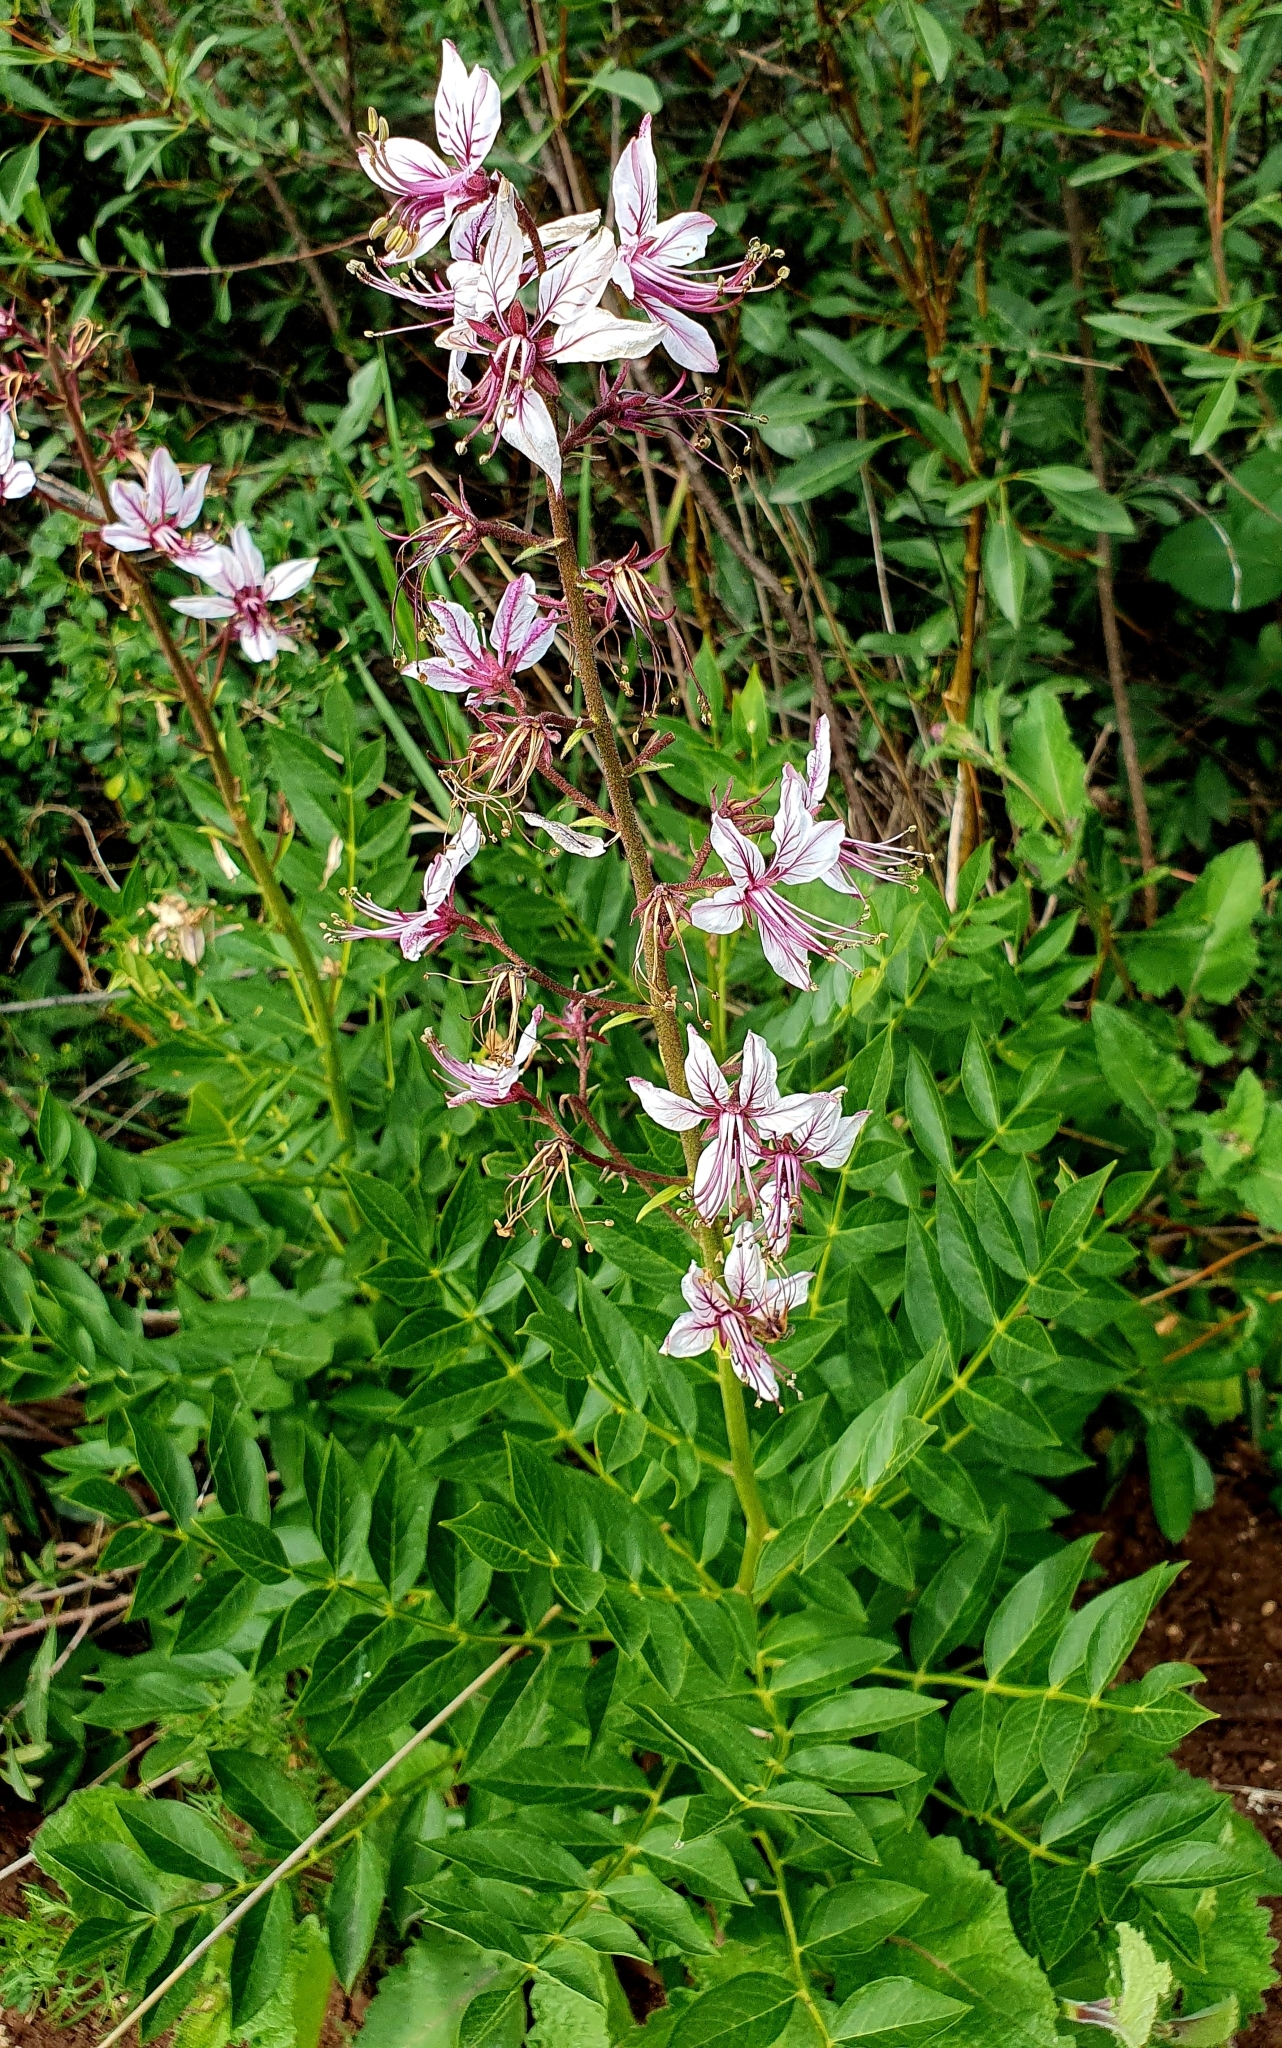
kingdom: Plantae
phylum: Tracheophyta
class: Magnoliopsida
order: Sapindales
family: Rutaceae
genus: Dictamnus
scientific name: Dictamnus albus
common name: Gasplant
